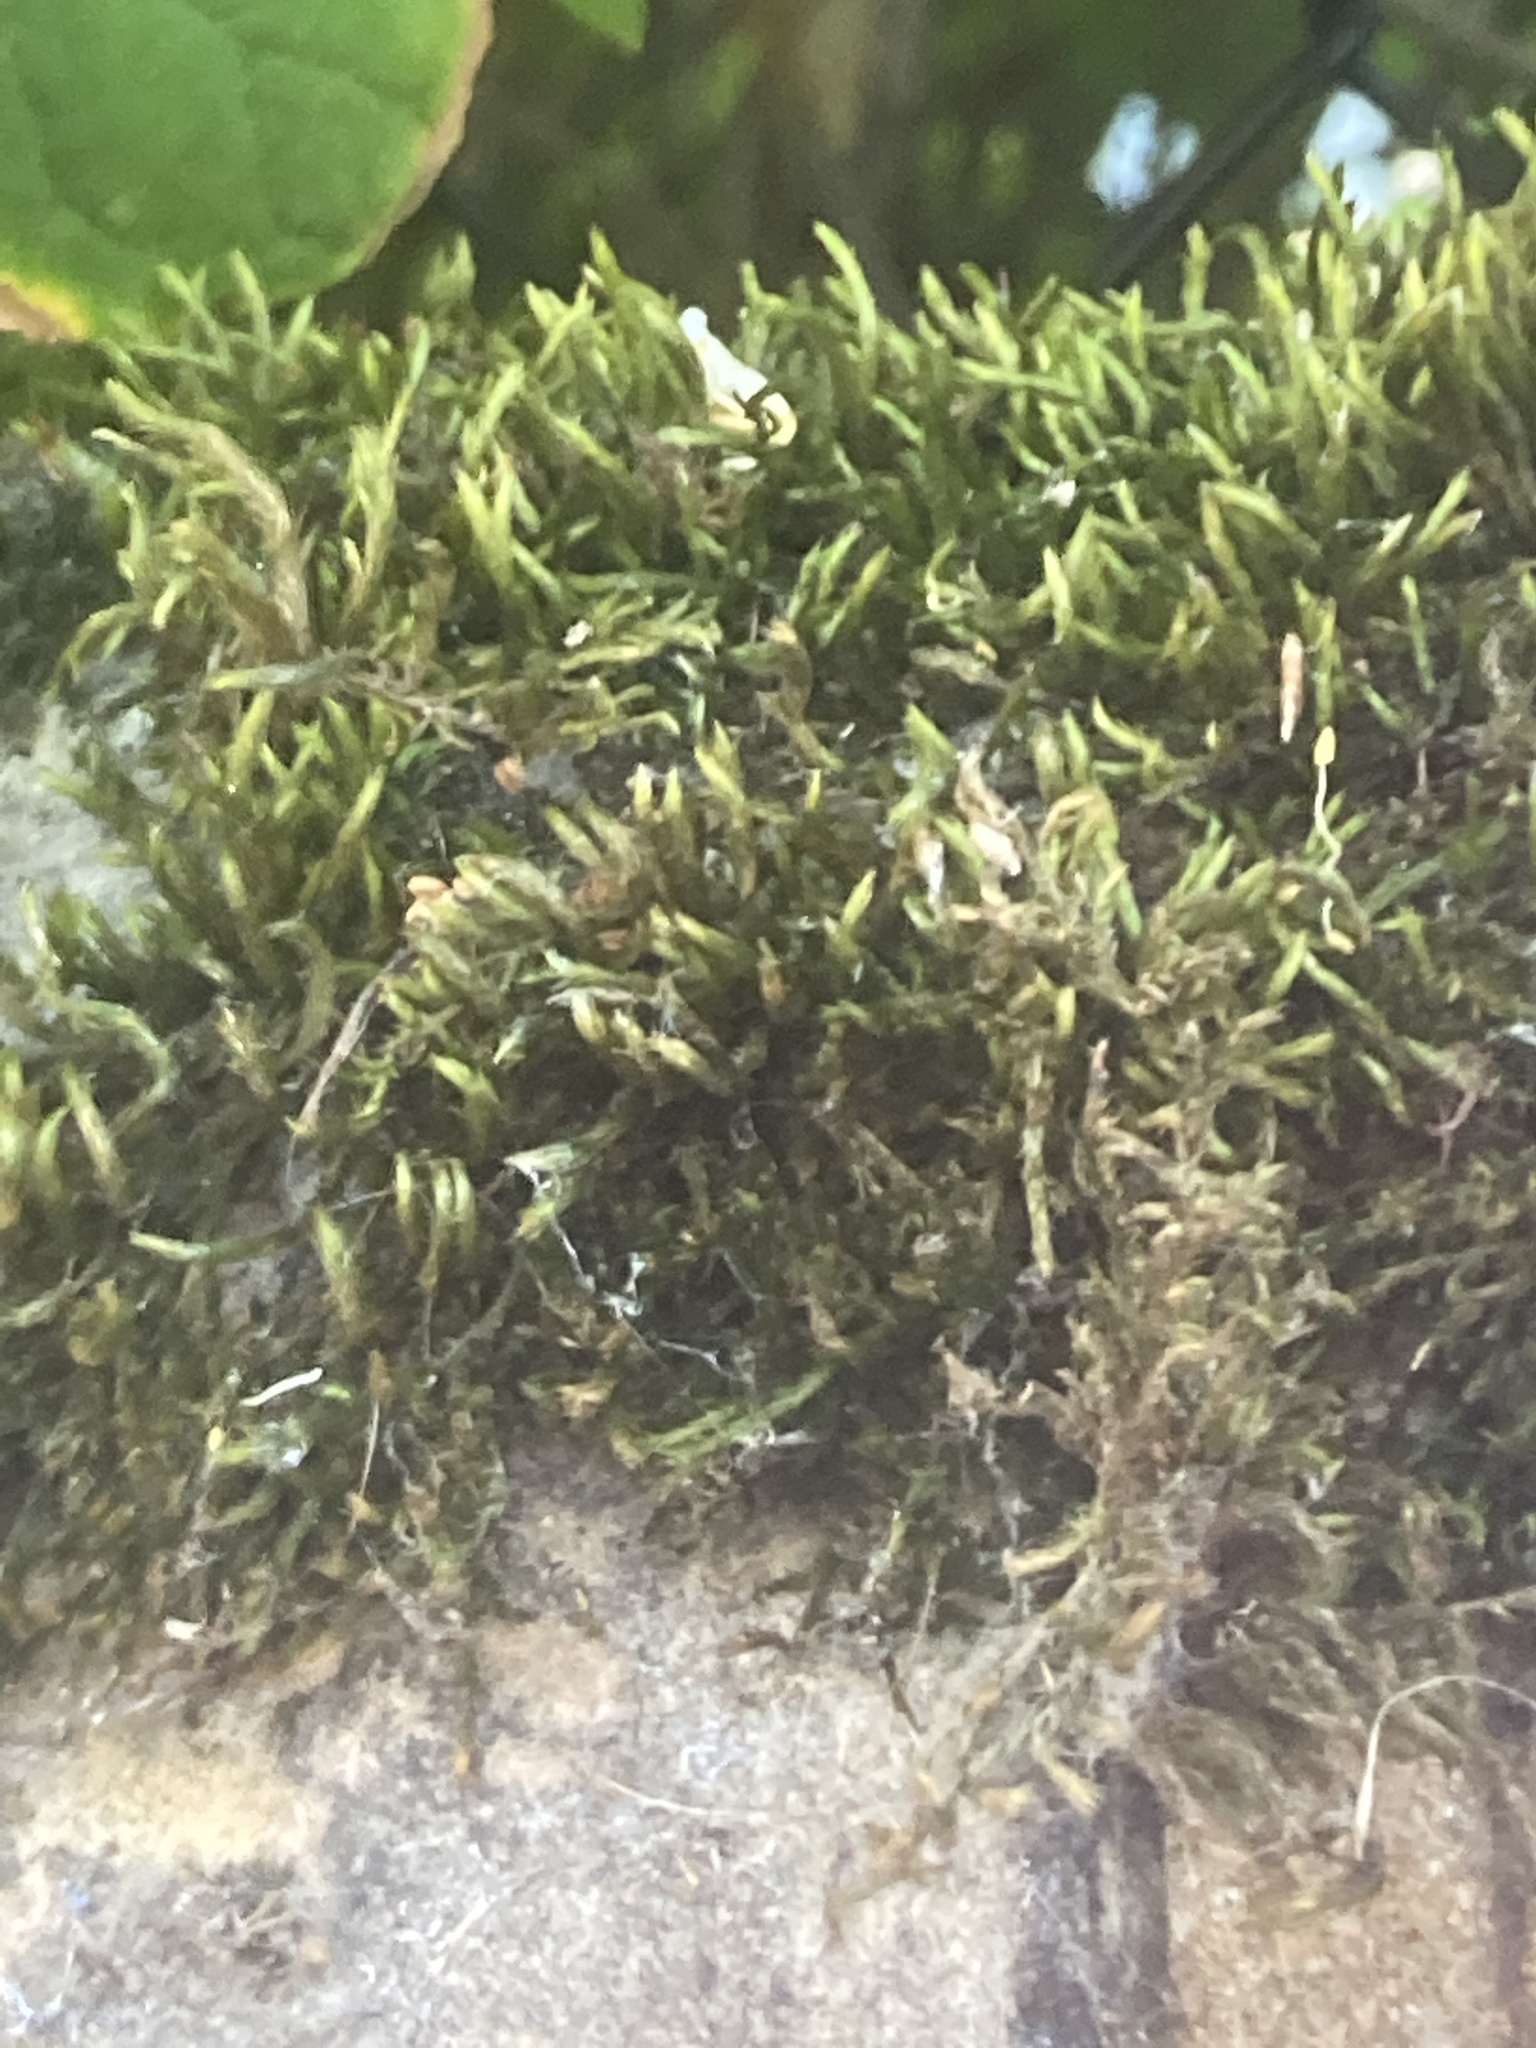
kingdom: Plantae
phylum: Bryophyta
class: Bryopsida
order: Hypnales
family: Leucodontaceae
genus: Leucodon
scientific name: Leucodon sciuroides
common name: Squirrel-tail moss
